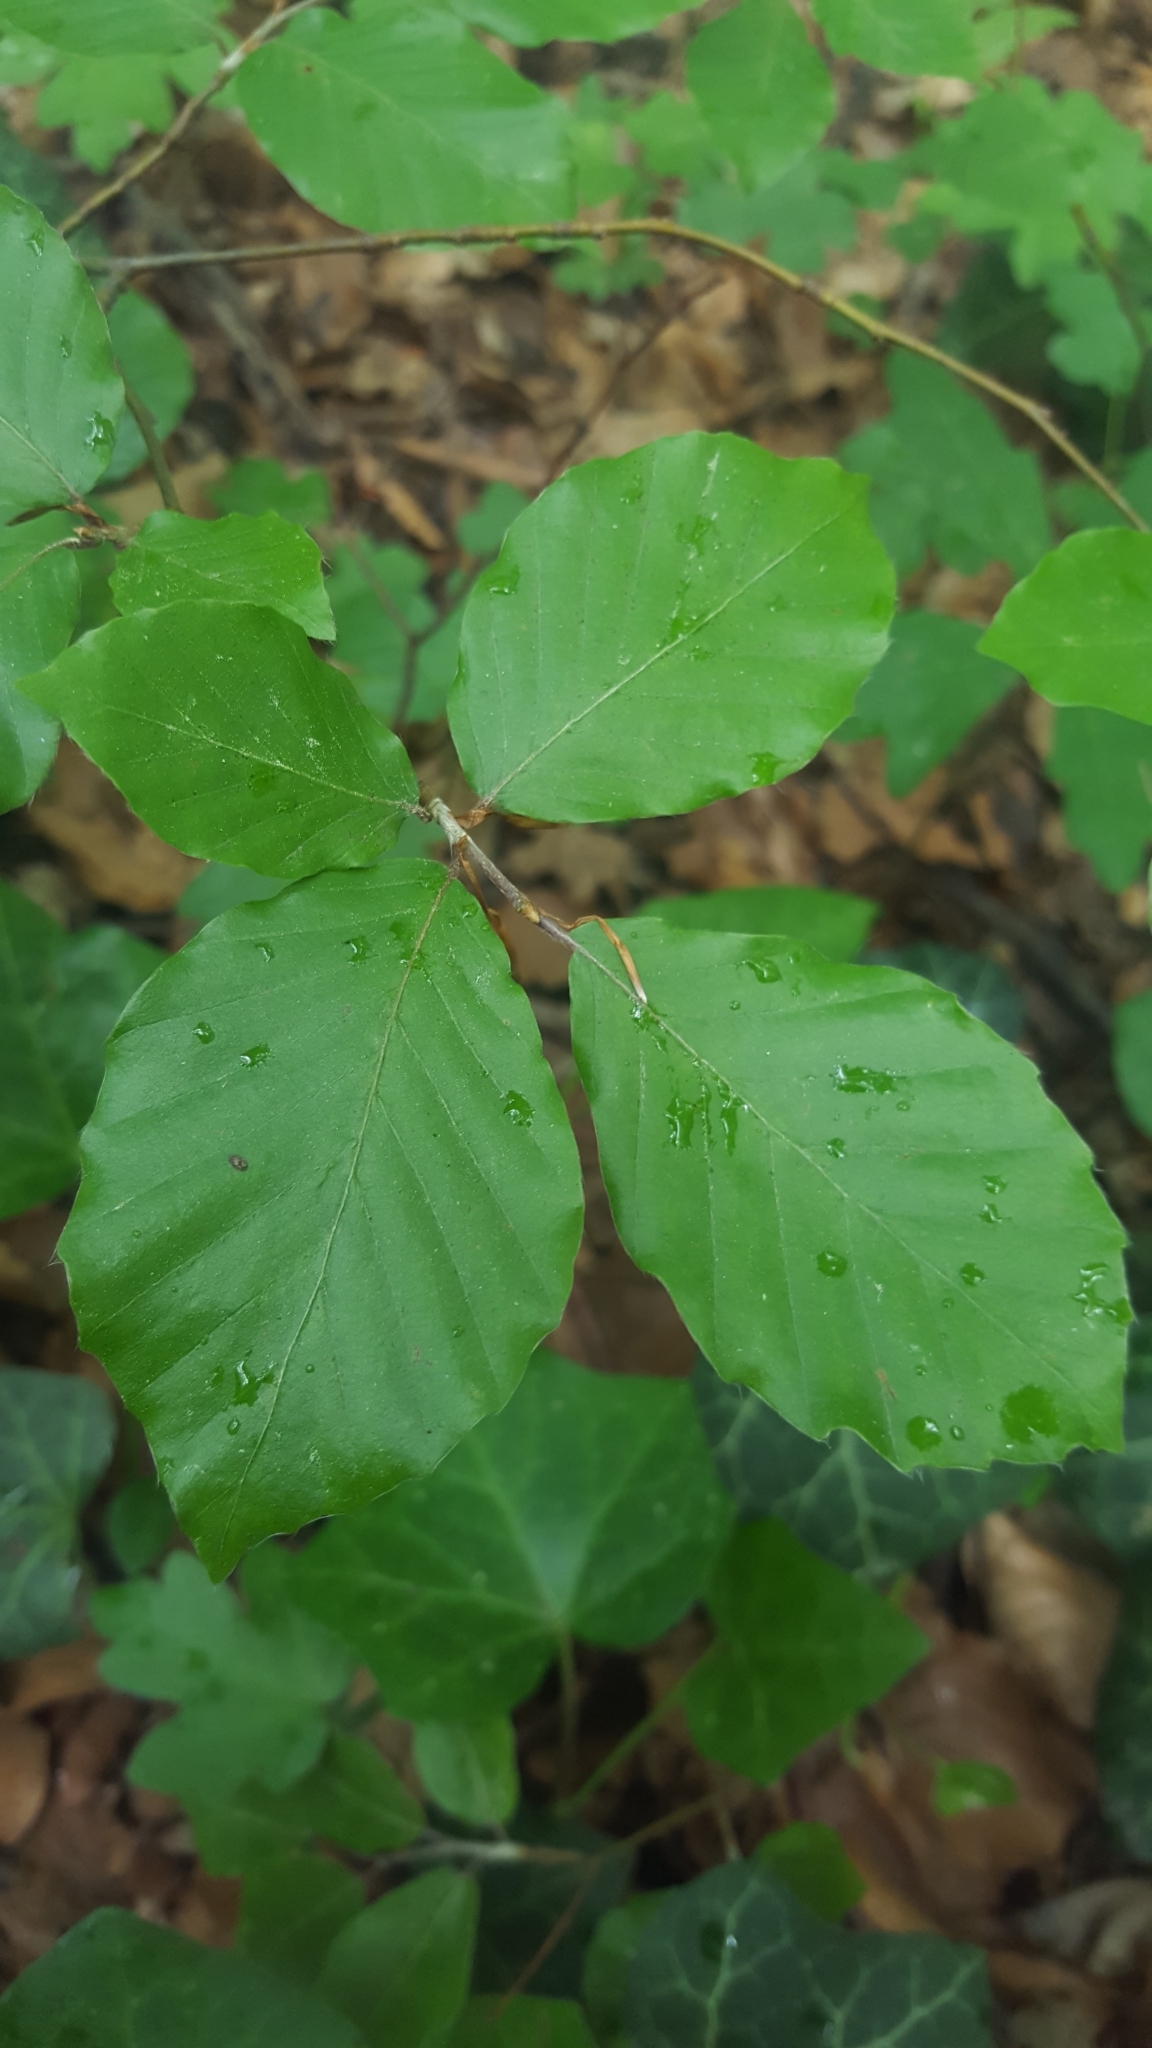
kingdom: Plantae
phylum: Tracheophyta
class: Magnoliopsida
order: Fagales
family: Fagaceae
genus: Fagus
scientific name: Fagus sylvatica
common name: Beech
